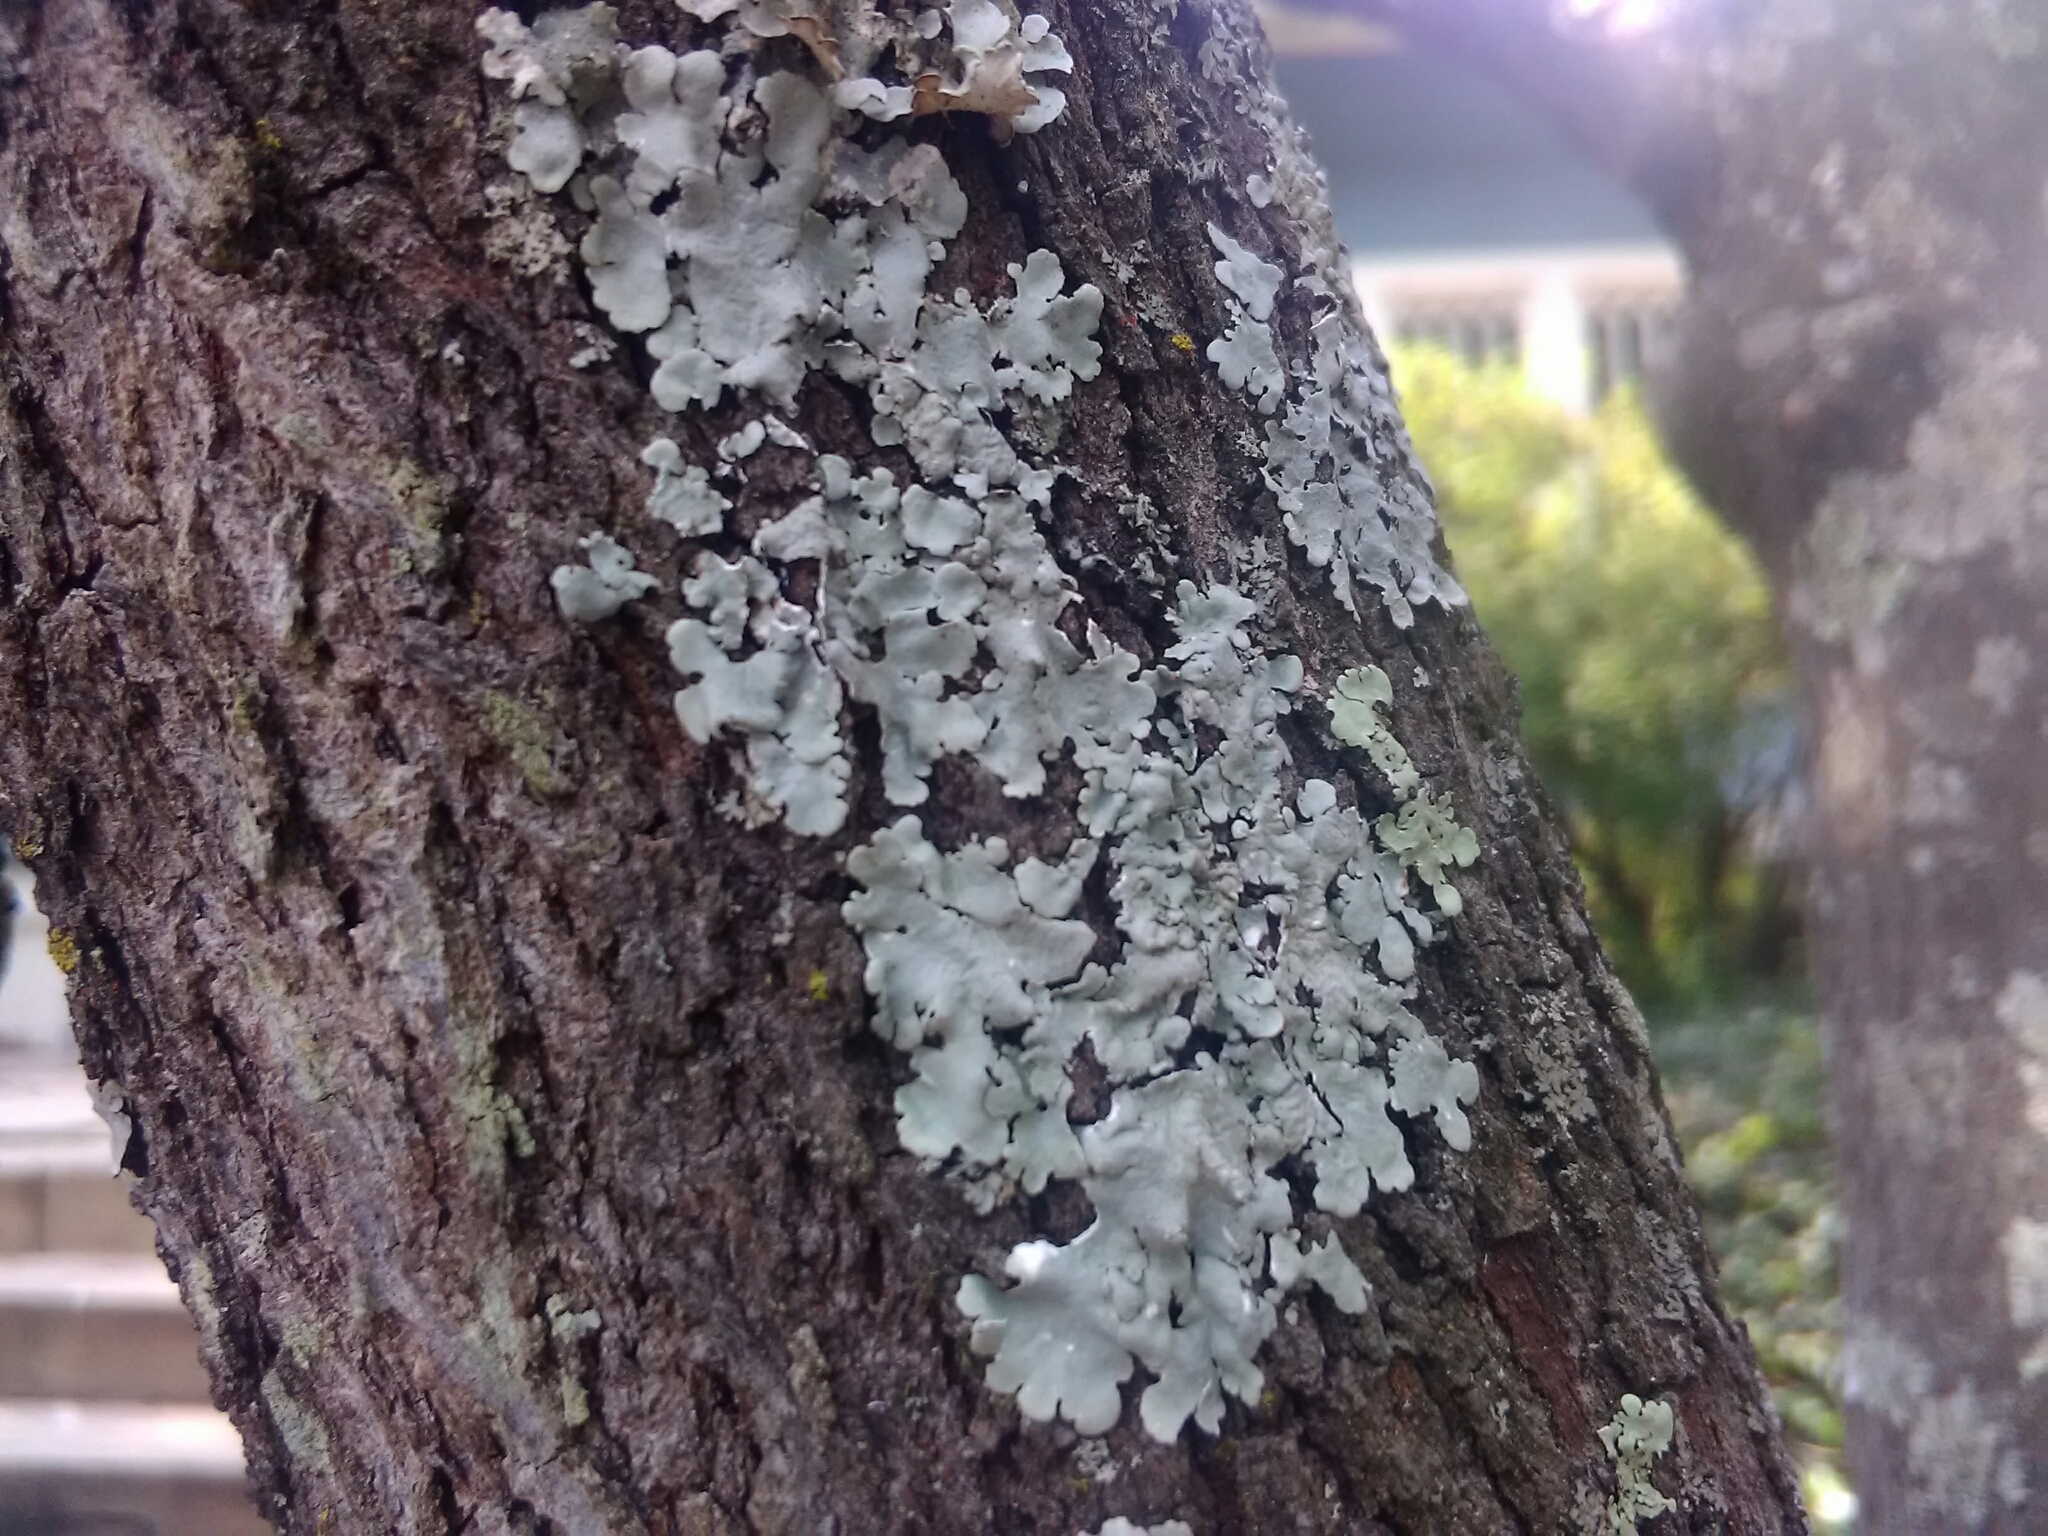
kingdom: Fungi
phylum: Ascomycota
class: Lecanoromycetes
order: Lecanorales
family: Parmeliaceae
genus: Myelochroa
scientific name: Myelochroa aurulenta
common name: Powdery axil-bristle lichen
